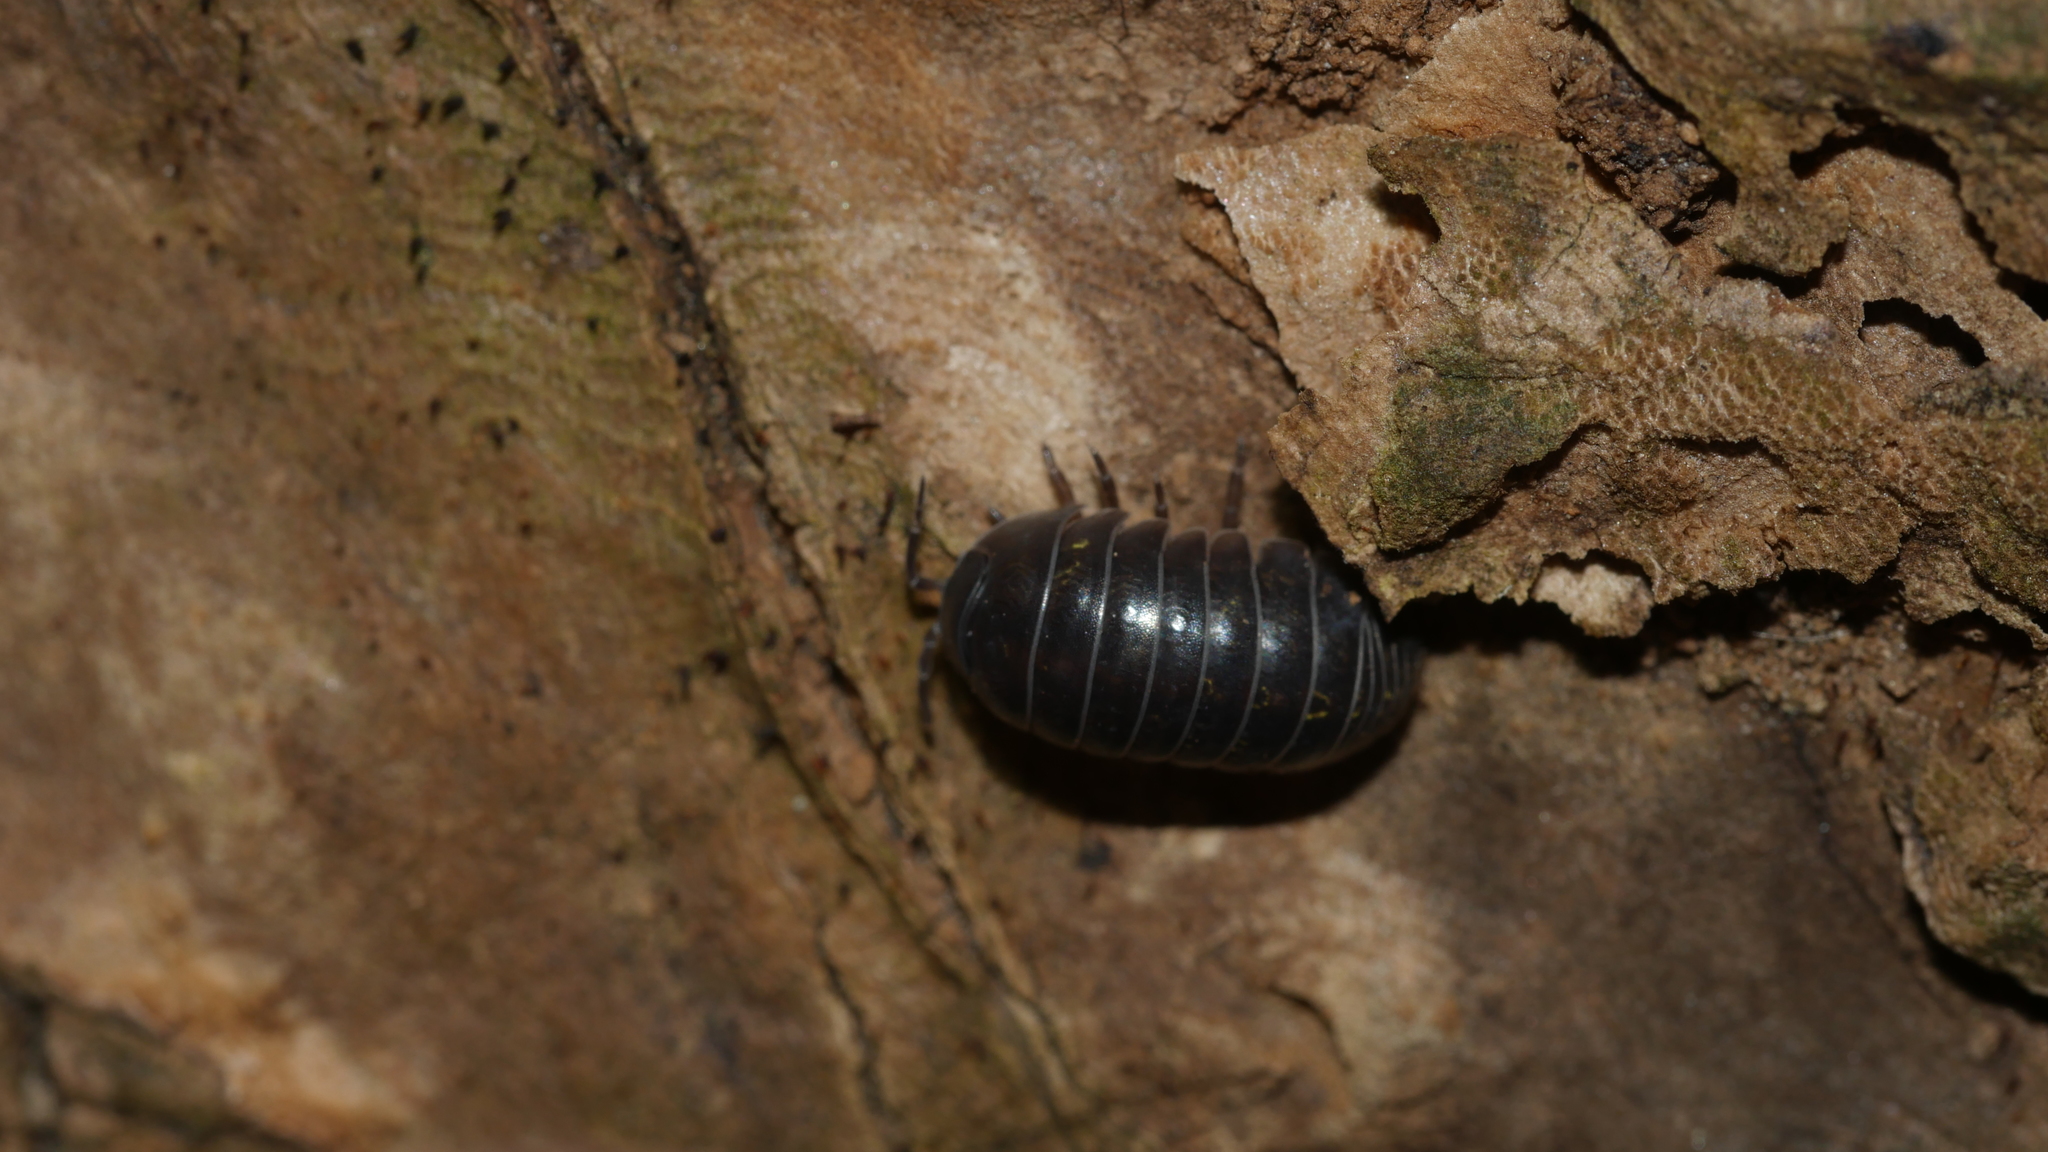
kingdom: Animalia
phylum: Arthropoda
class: Malacostraca
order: Isopoda
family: Armadillidiidae
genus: Armadillidium
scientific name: Armadillidium vulgare
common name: Common pill woodlouse
